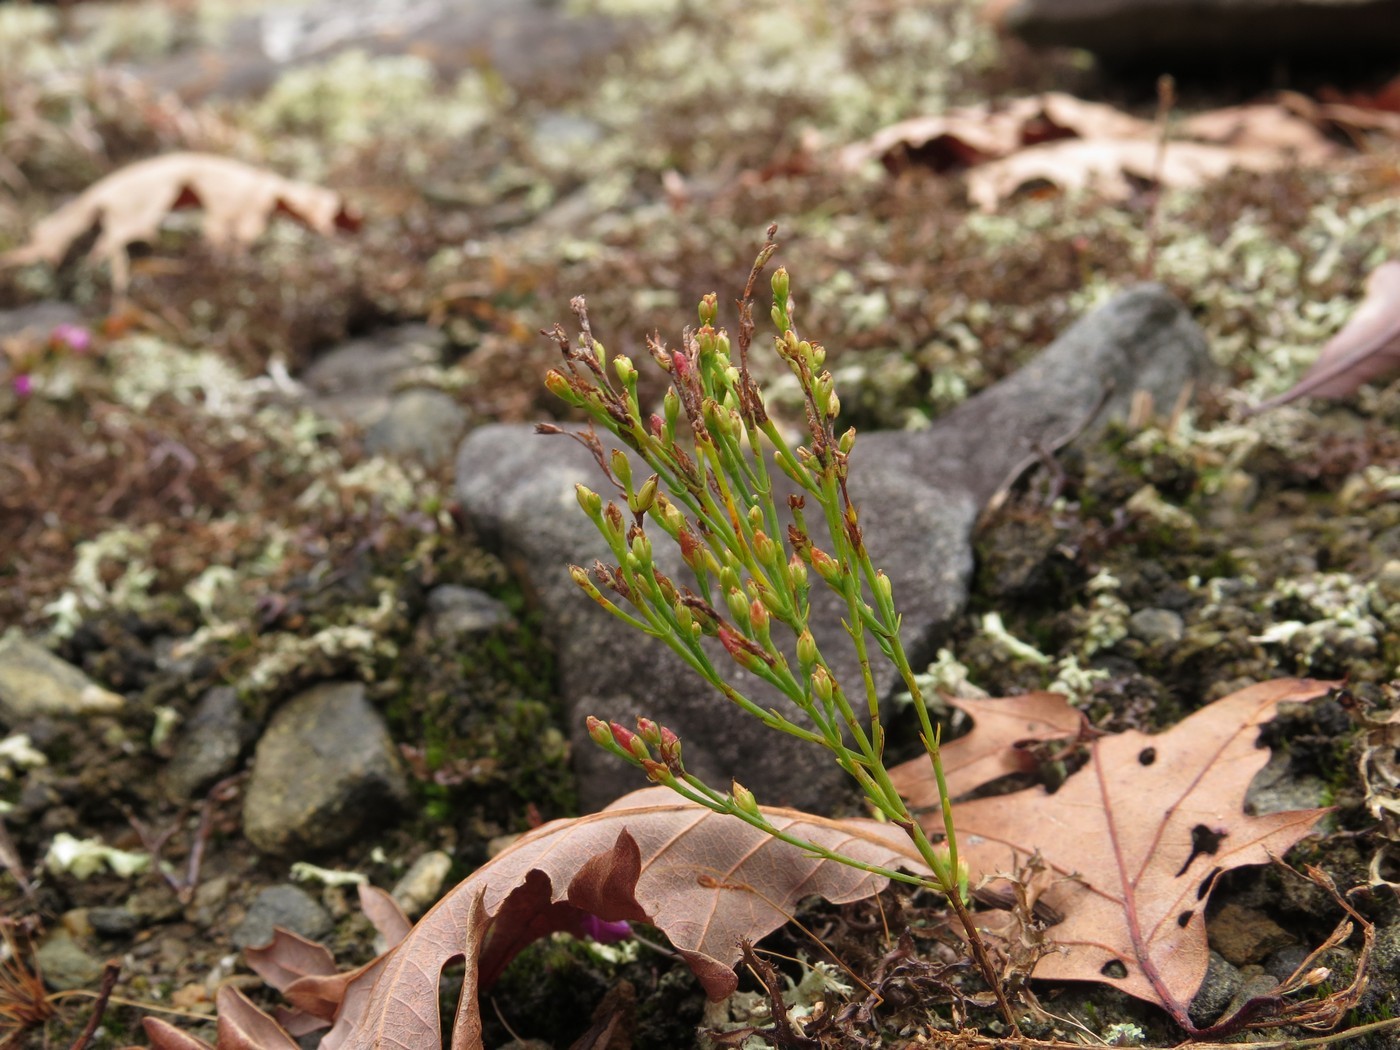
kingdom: Plantae
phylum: Tracheophyta
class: Magnoliopsida
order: Malpighiales
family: Hypericaceae
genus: Hypericum
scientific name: Hypericum gentianoides
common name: Gentian-leaved st. john's-wort
